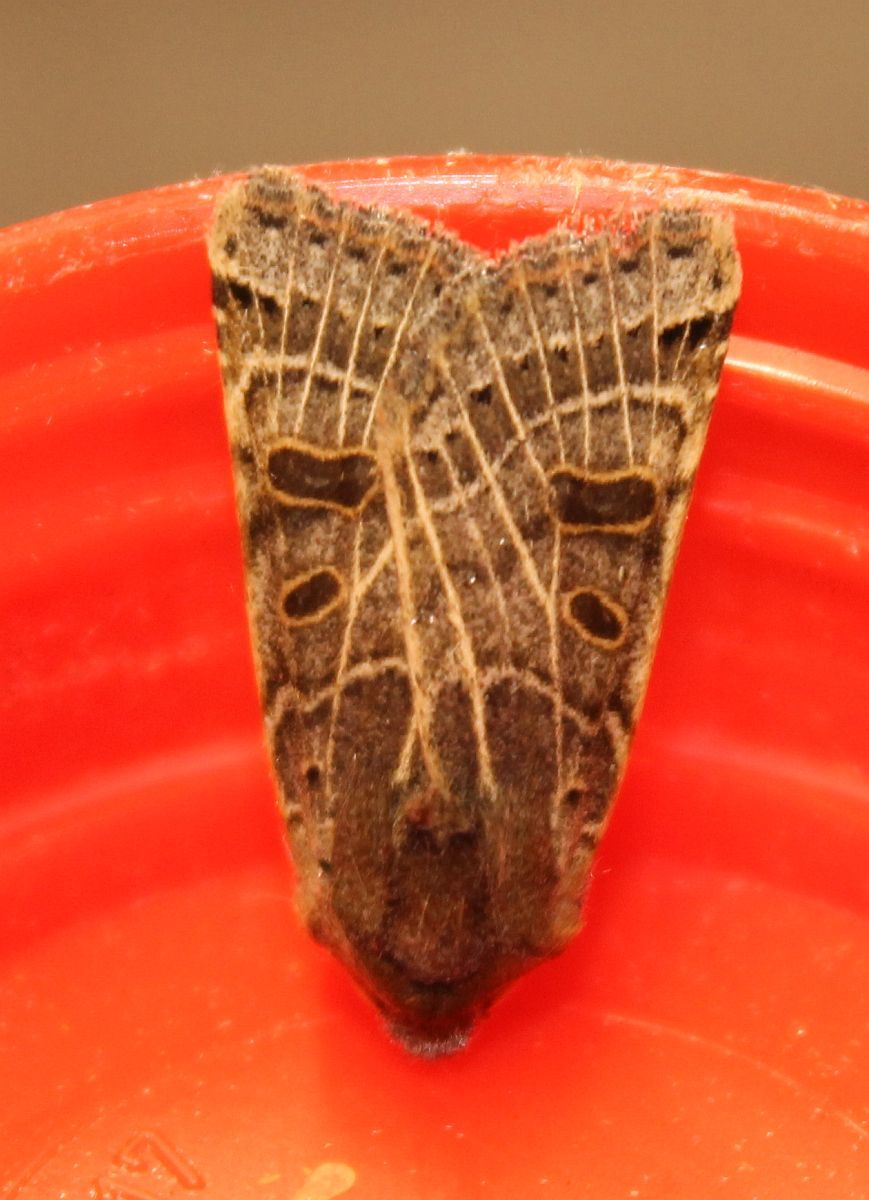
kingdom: Animalia
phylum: Arthropoda
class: Insecta
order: Lepidoptera
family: Noctuidae
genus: Agrochola
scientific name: Agrochola lunosa
